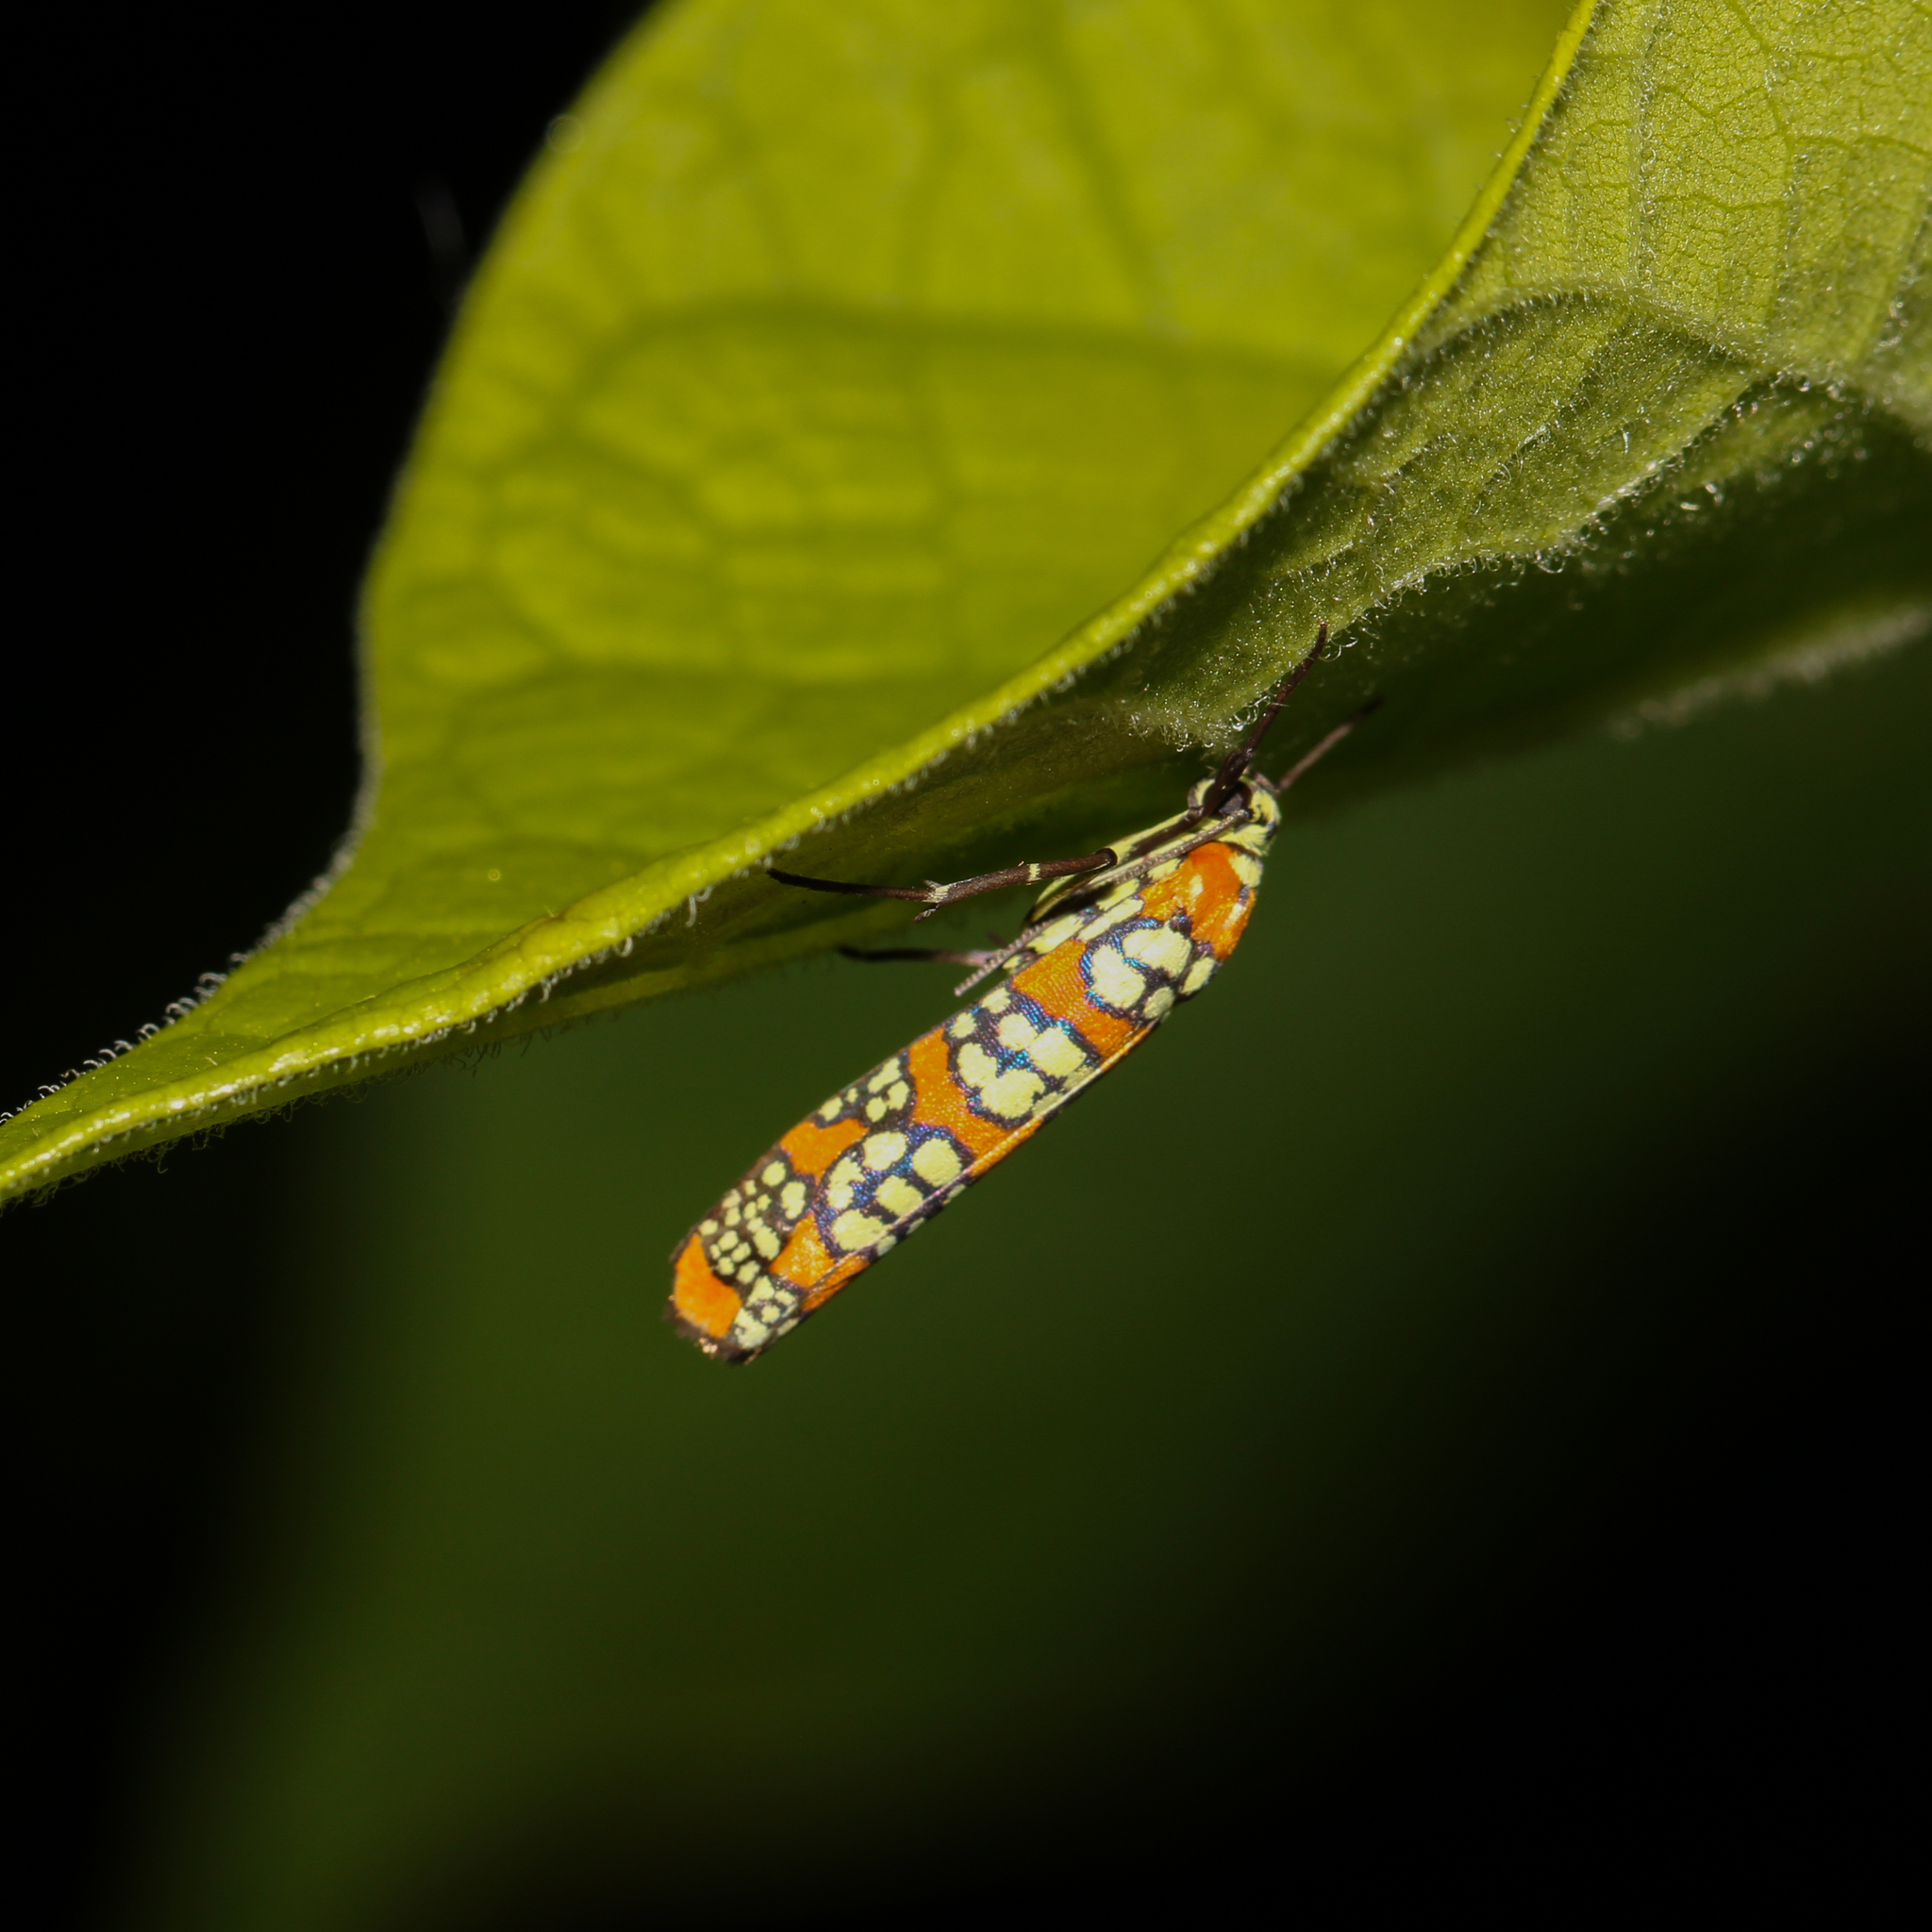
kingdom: Animalia
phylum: Arthropoda
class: Insecta
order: Lepidoptera
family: Attevidae
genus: Atteva
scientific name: Atteva punctella
